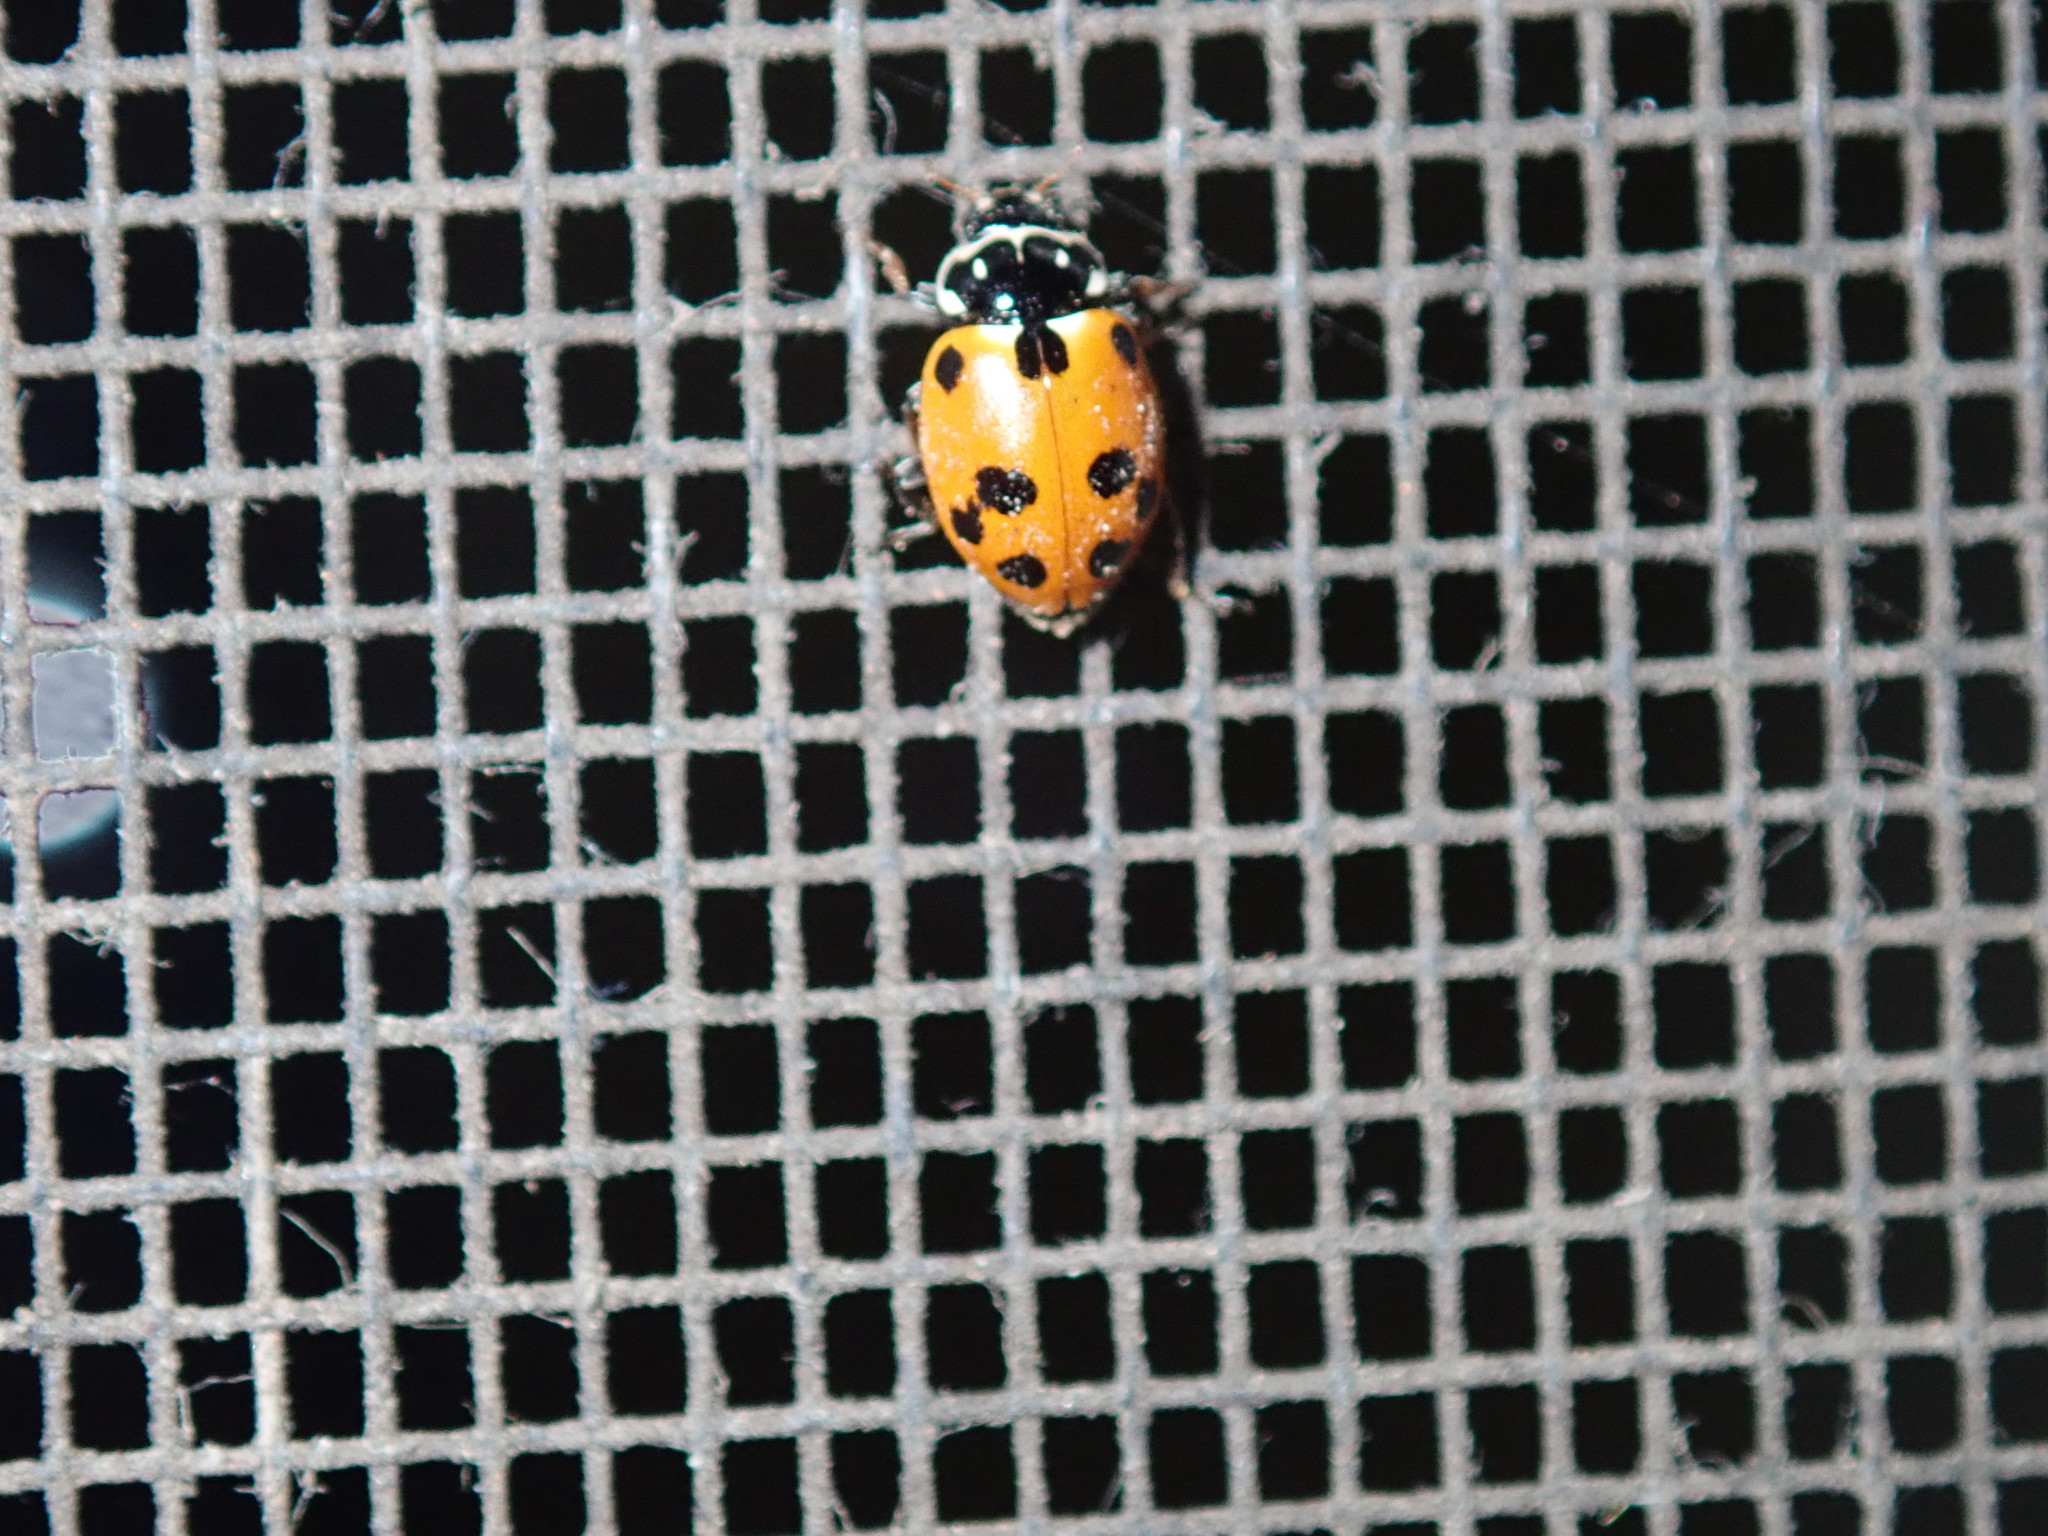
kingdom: Animalia
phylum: Arthropoda
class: Insecta
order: Coleoptera
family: Coccinellidae
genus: Hippodamia
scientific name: Hippodamia variegata
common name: Ladybird beetle
